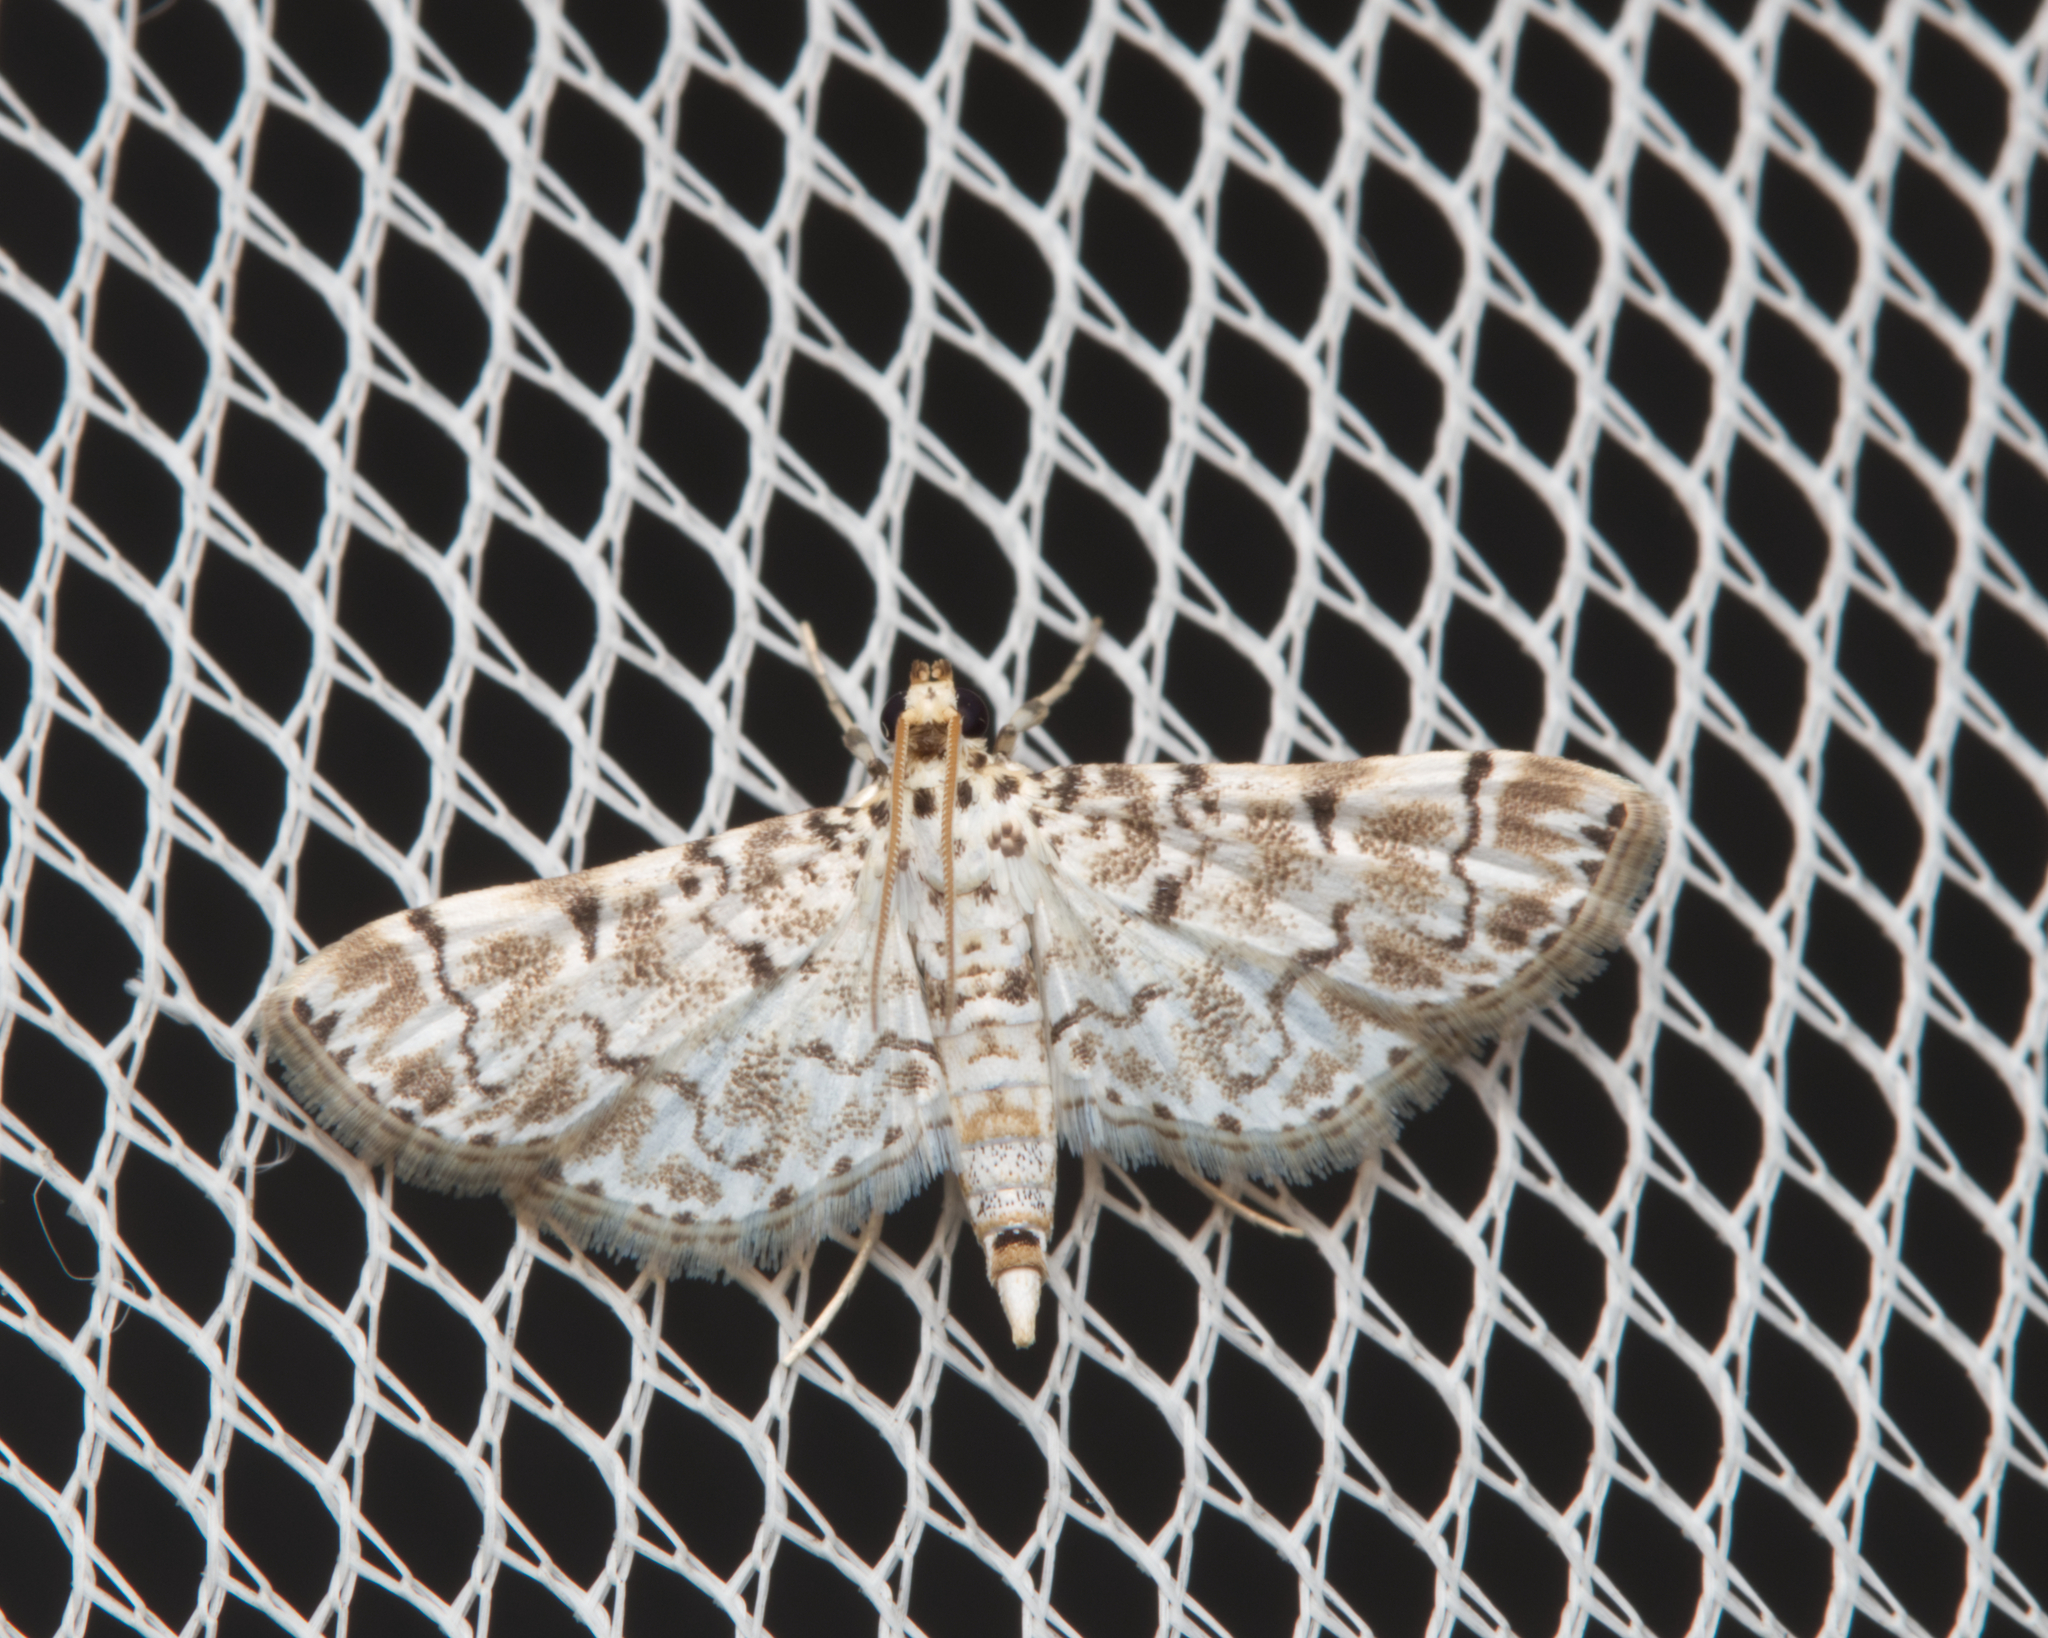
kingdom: Animalia
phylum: Arthropoda
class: Insecta
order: Lepidoptera
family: Crambidae
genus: Metoeca
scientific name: Metoeca foedalis
